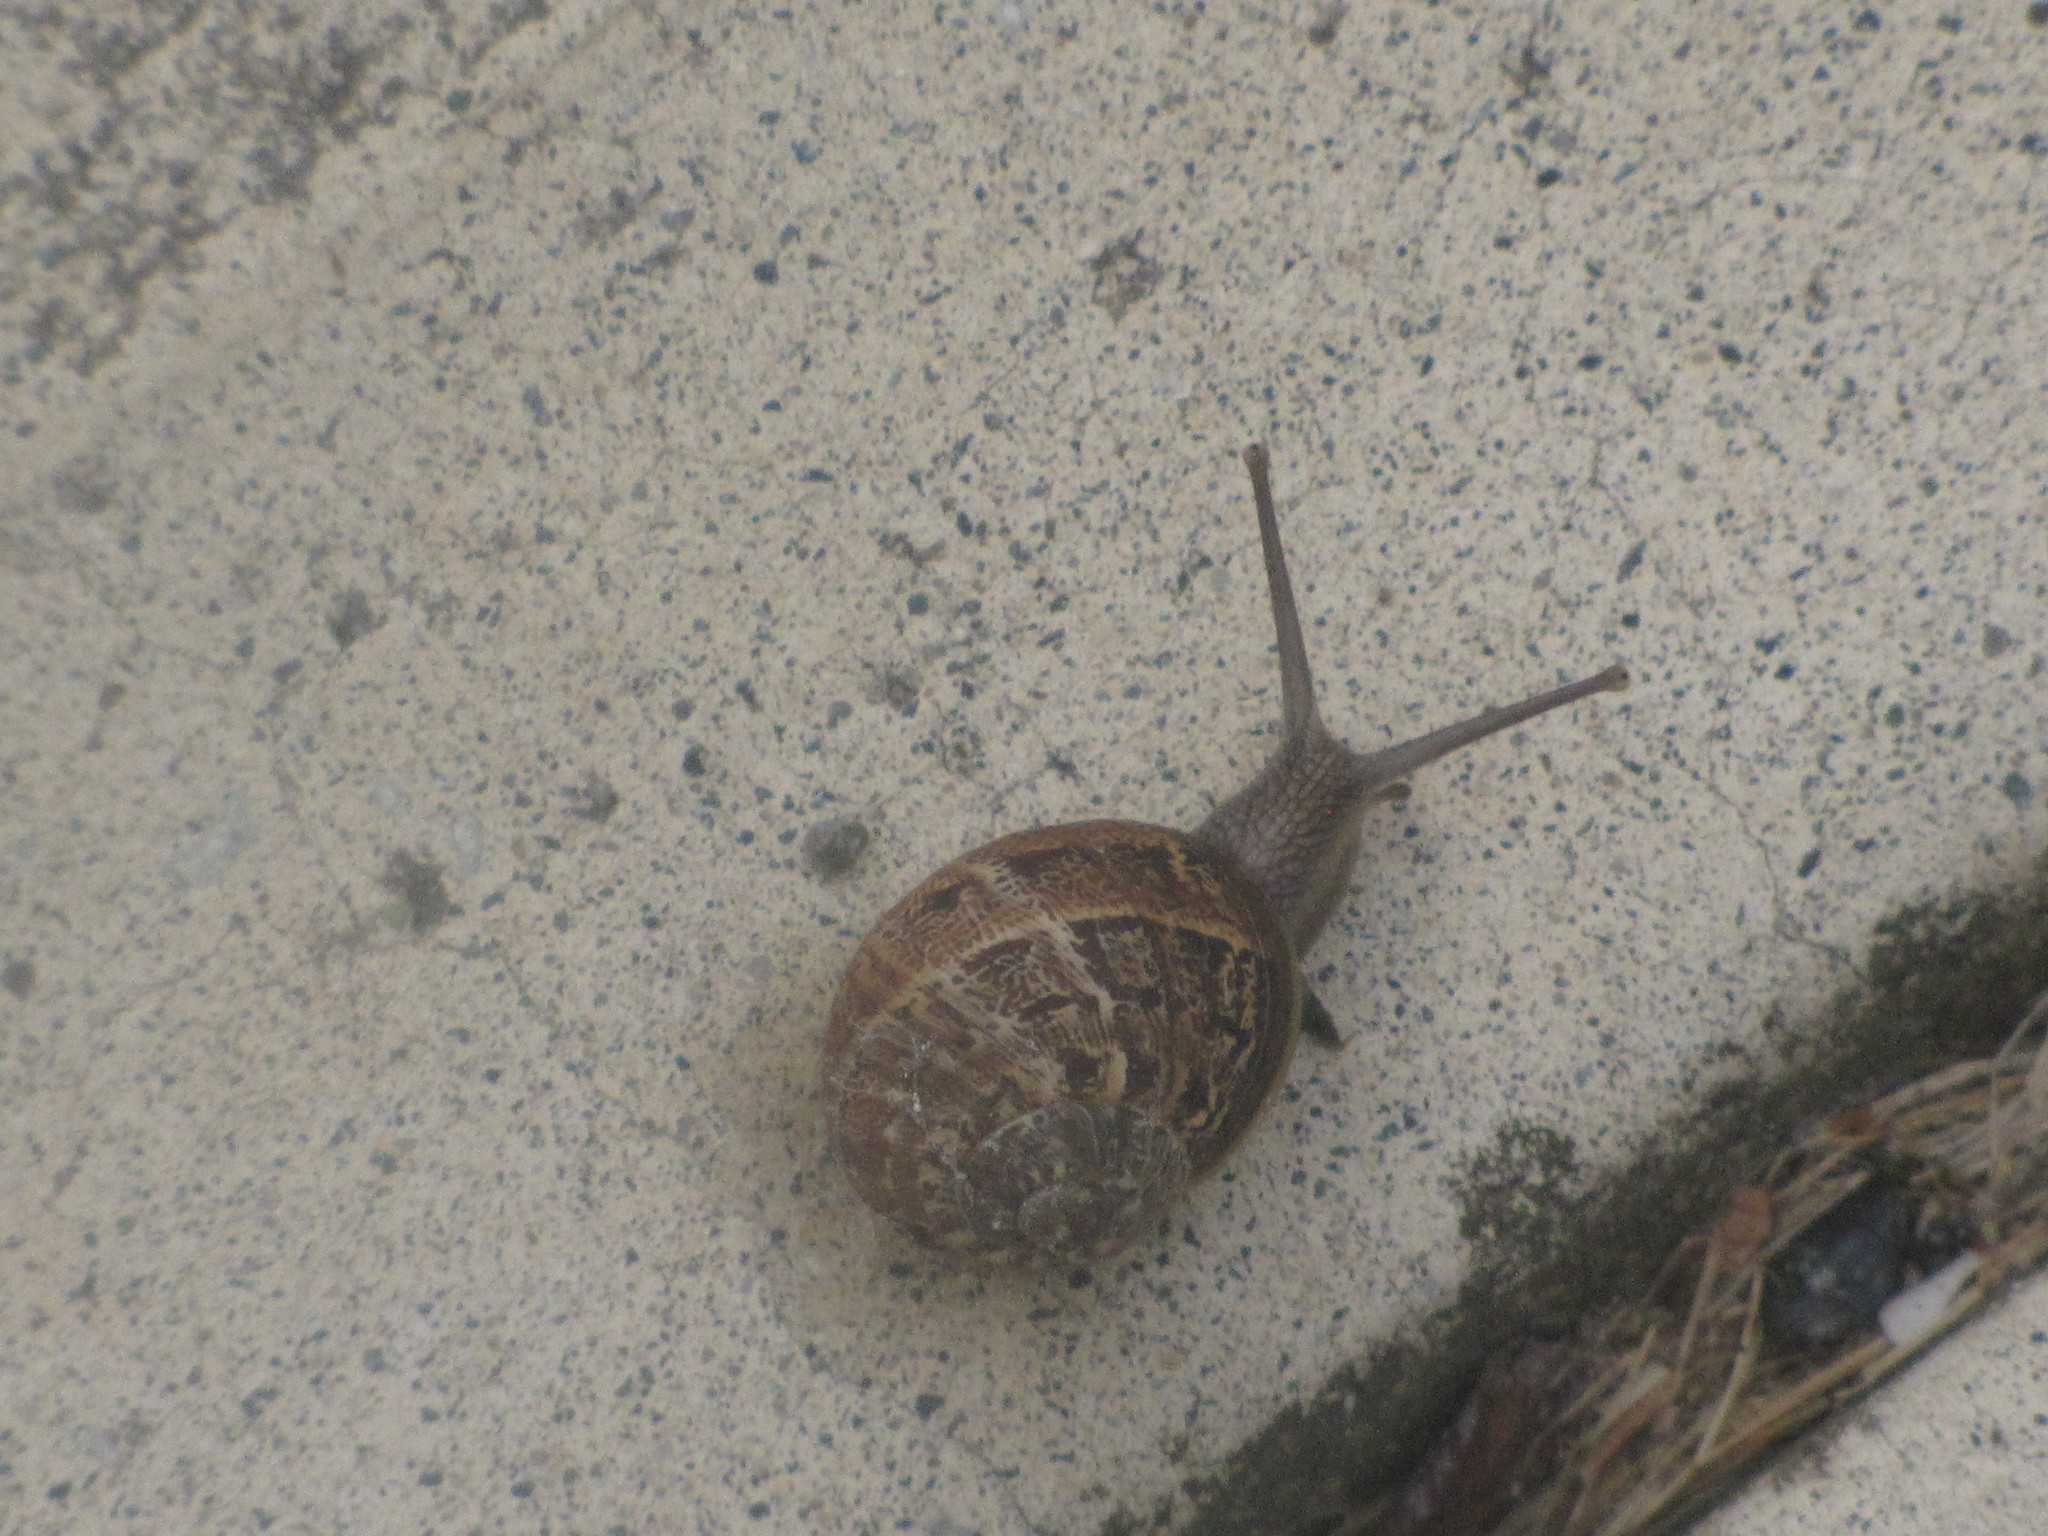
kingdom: Animalia
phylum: Mollusca
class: Gastropoda
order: Stylommatophora
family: Helicidae
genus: Cornu
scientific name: Cornu aspersum
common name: Brown garden snail
